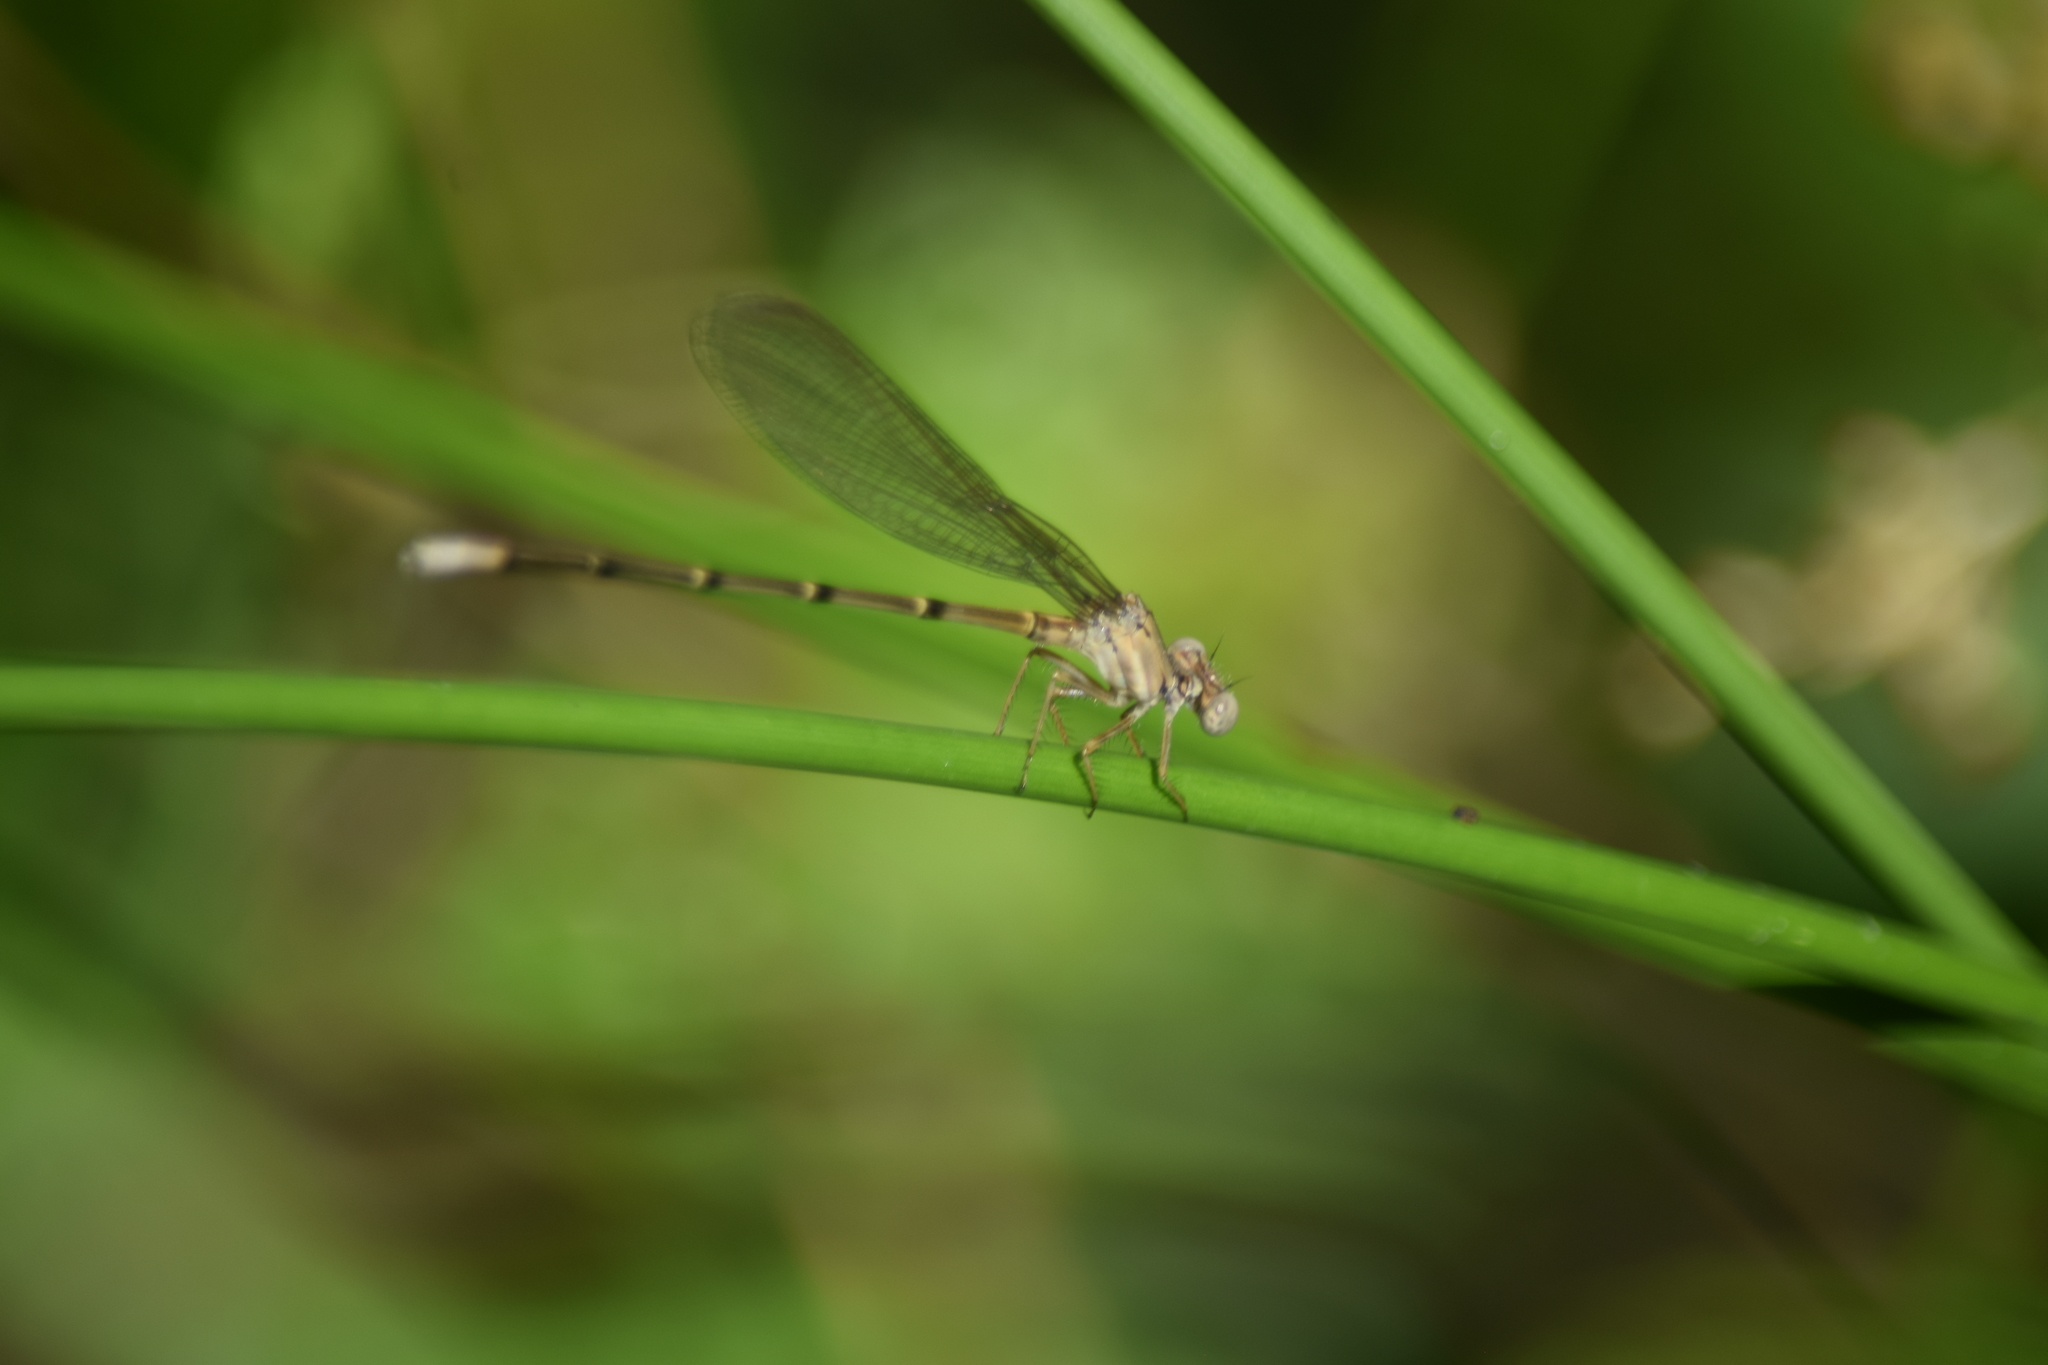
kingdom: Animalia
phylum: Arthropoda
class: Insecta
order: Odonata
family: Coenagrionidae
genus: Argia
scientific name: Argia apicalis
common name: Blue-fronted dancer
